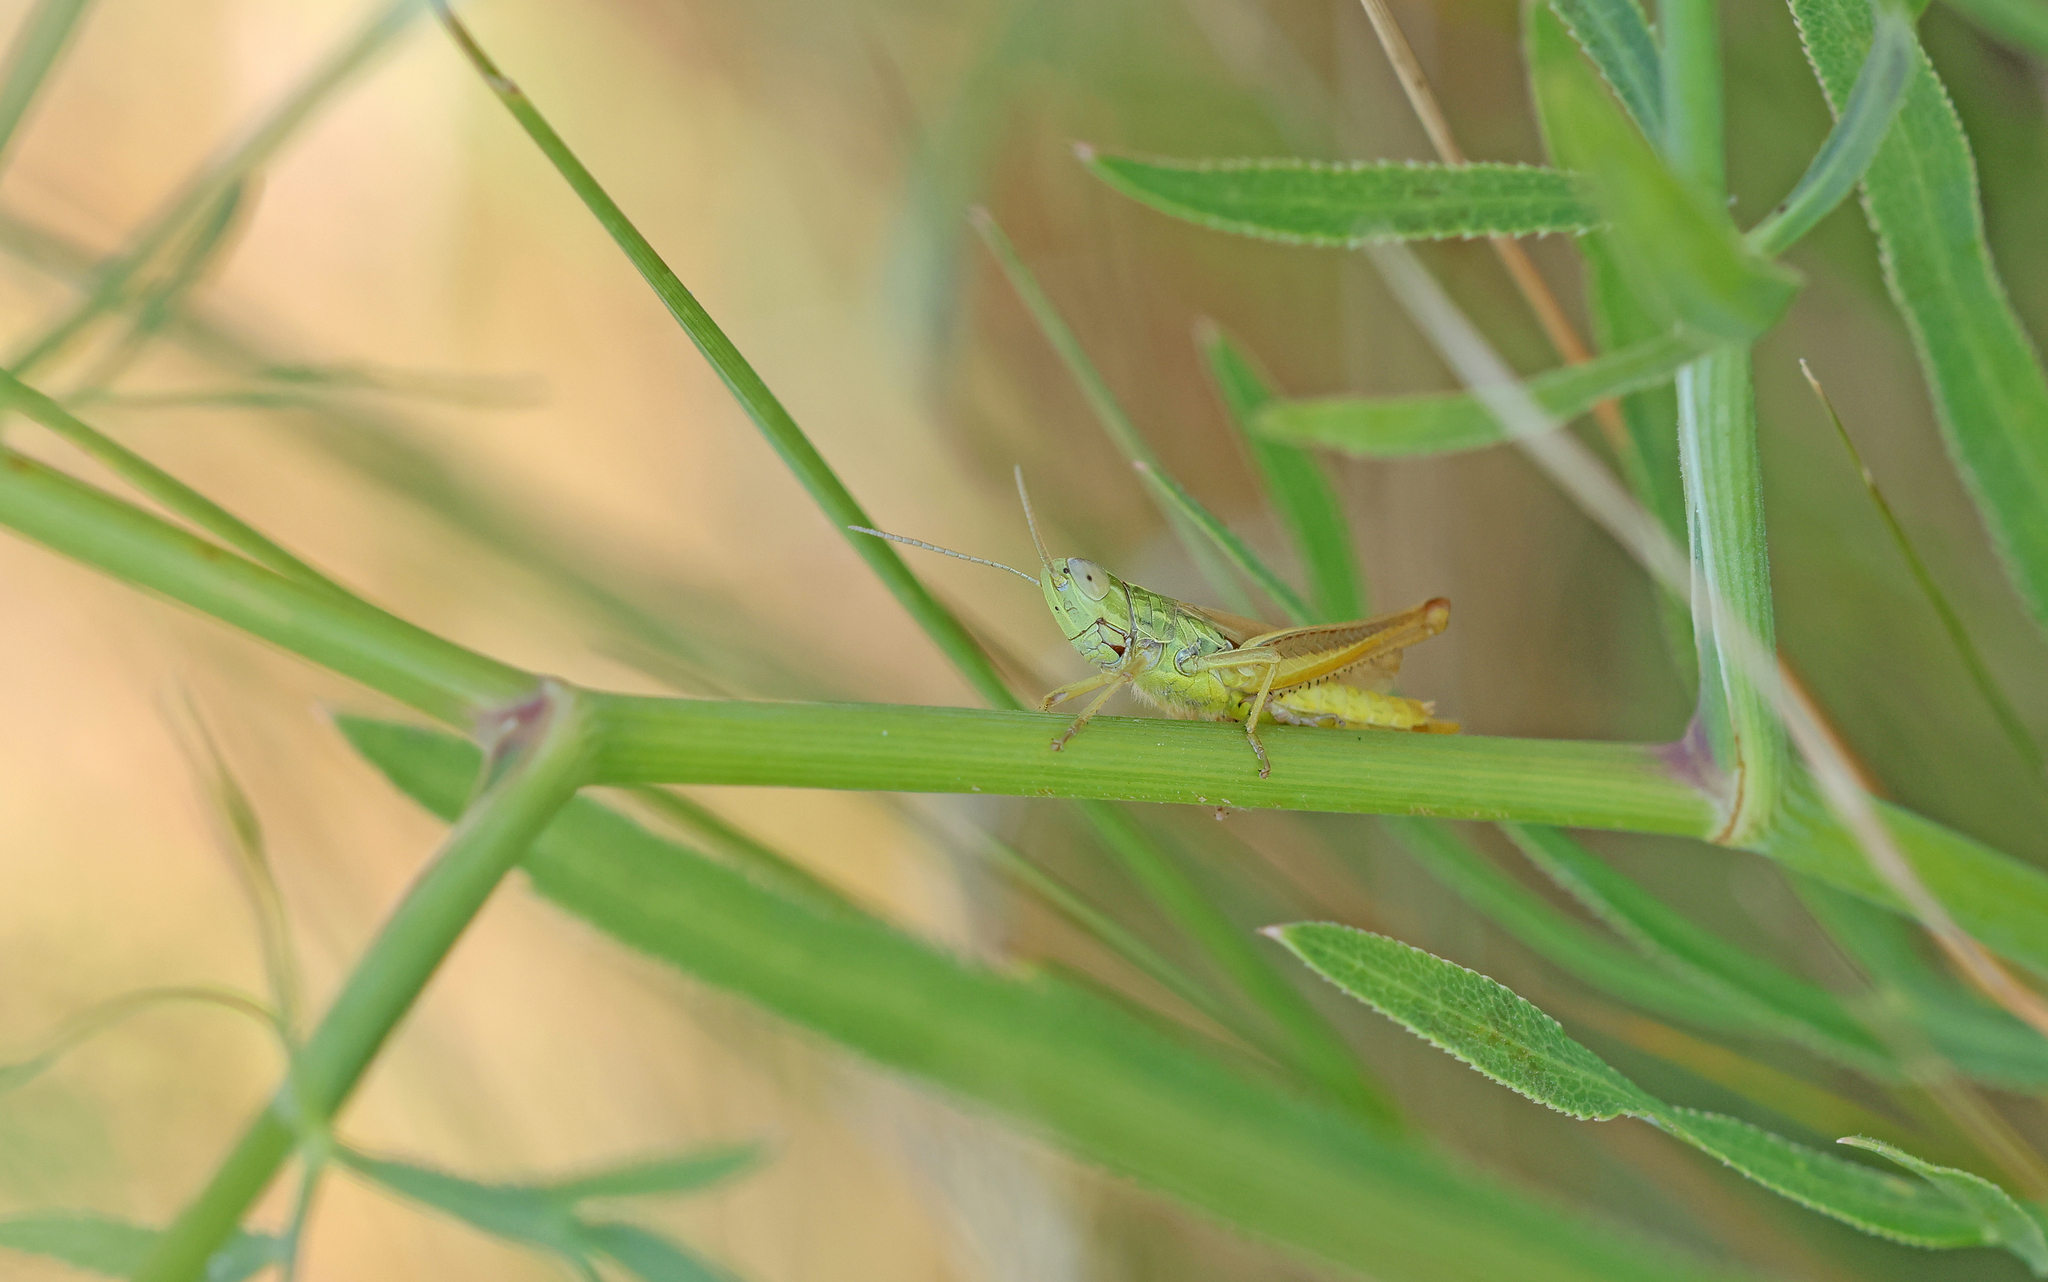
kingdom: Animalia
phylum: Arthropoda
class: Insecta
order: Orthoptera
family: Acrididae
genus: Euchorthippus
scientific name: Euchorthippus declivus
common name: Common straw grasshopper
